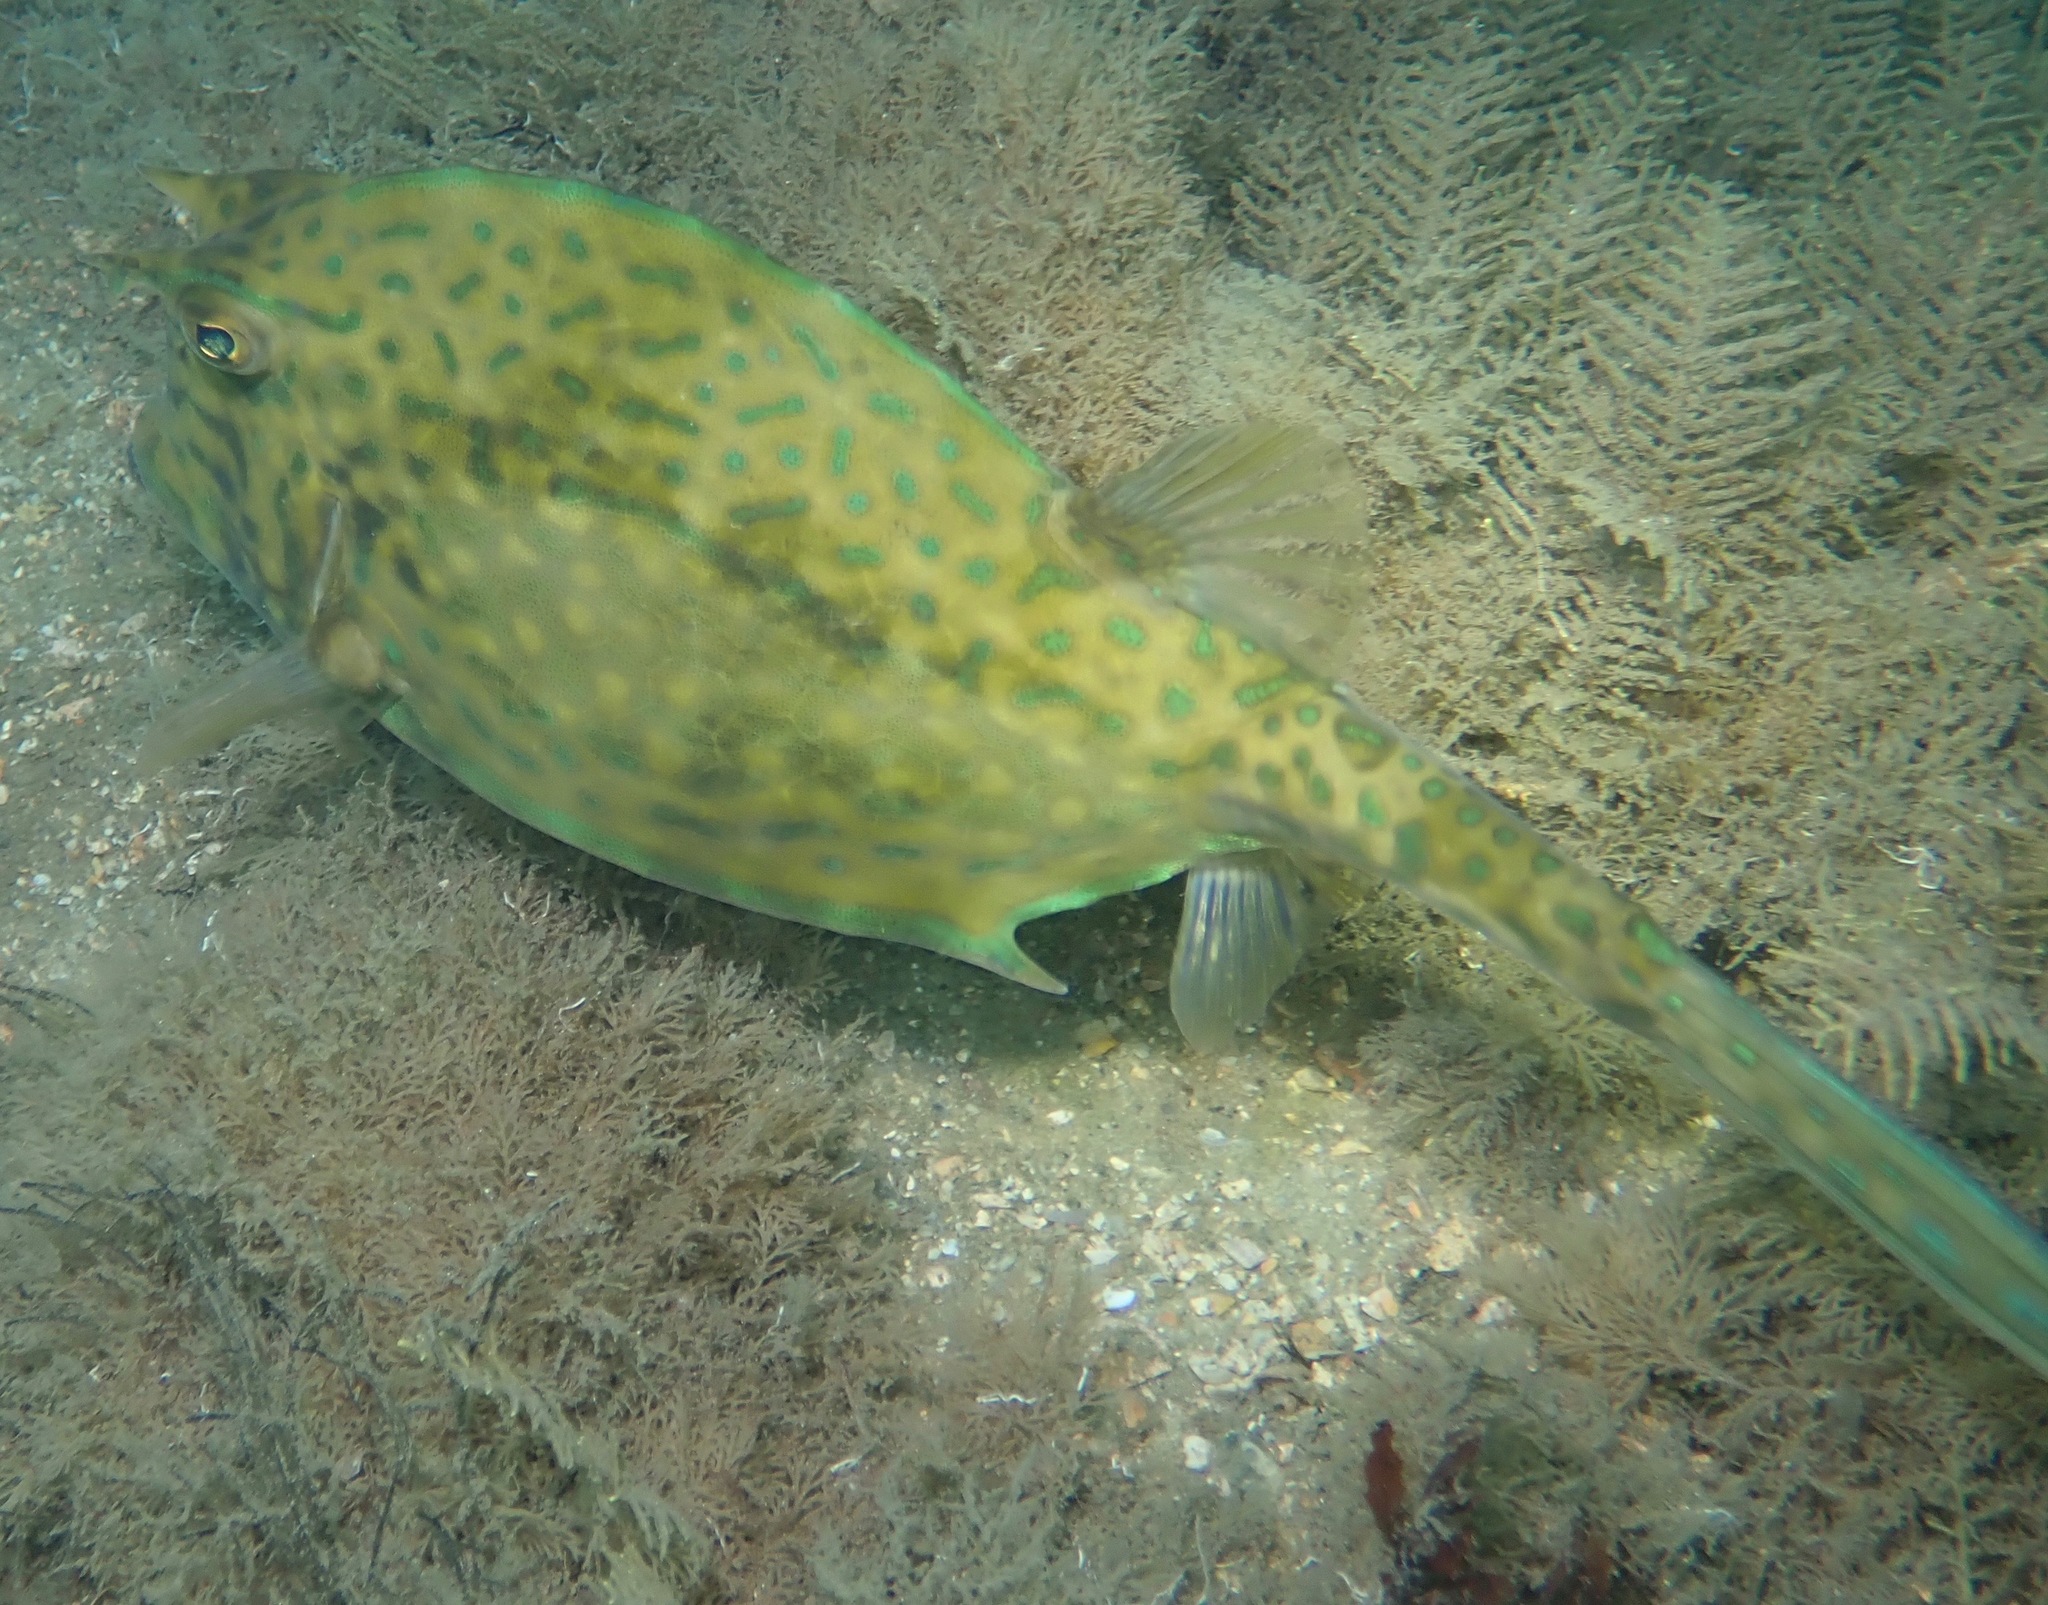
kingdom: Animalia
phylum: Chordata
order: Tetraodontiformes
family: Ostraciidae
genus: Acanthostracion
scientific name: Acanthostracion quadricornis
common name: Scrawled cowfish
